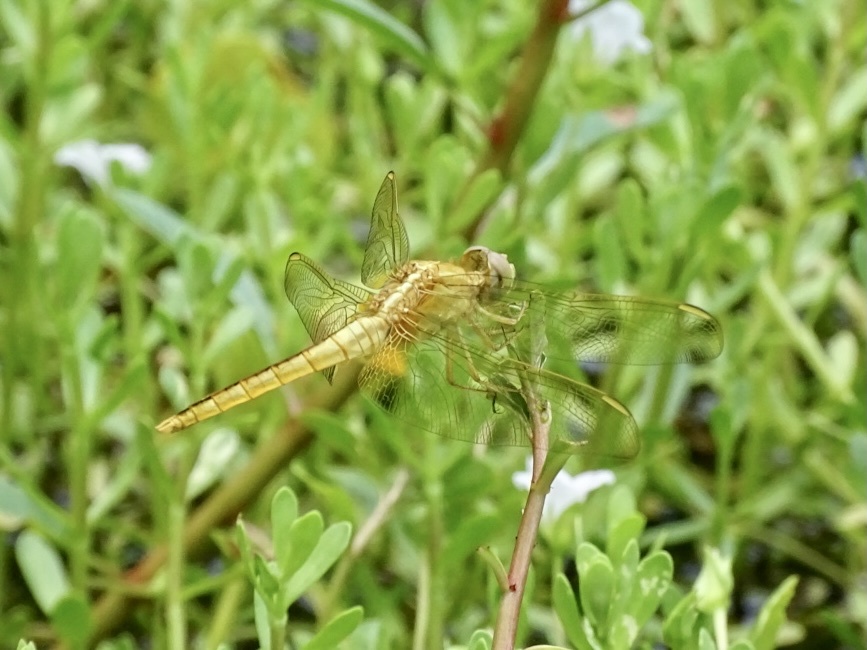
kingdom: Animalia
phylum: Arthropoda
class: Insecta
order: Odonata
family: Libellulidae
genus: Crocothemis
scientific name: Crocothemis servilia
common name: Scarlet skimmer
